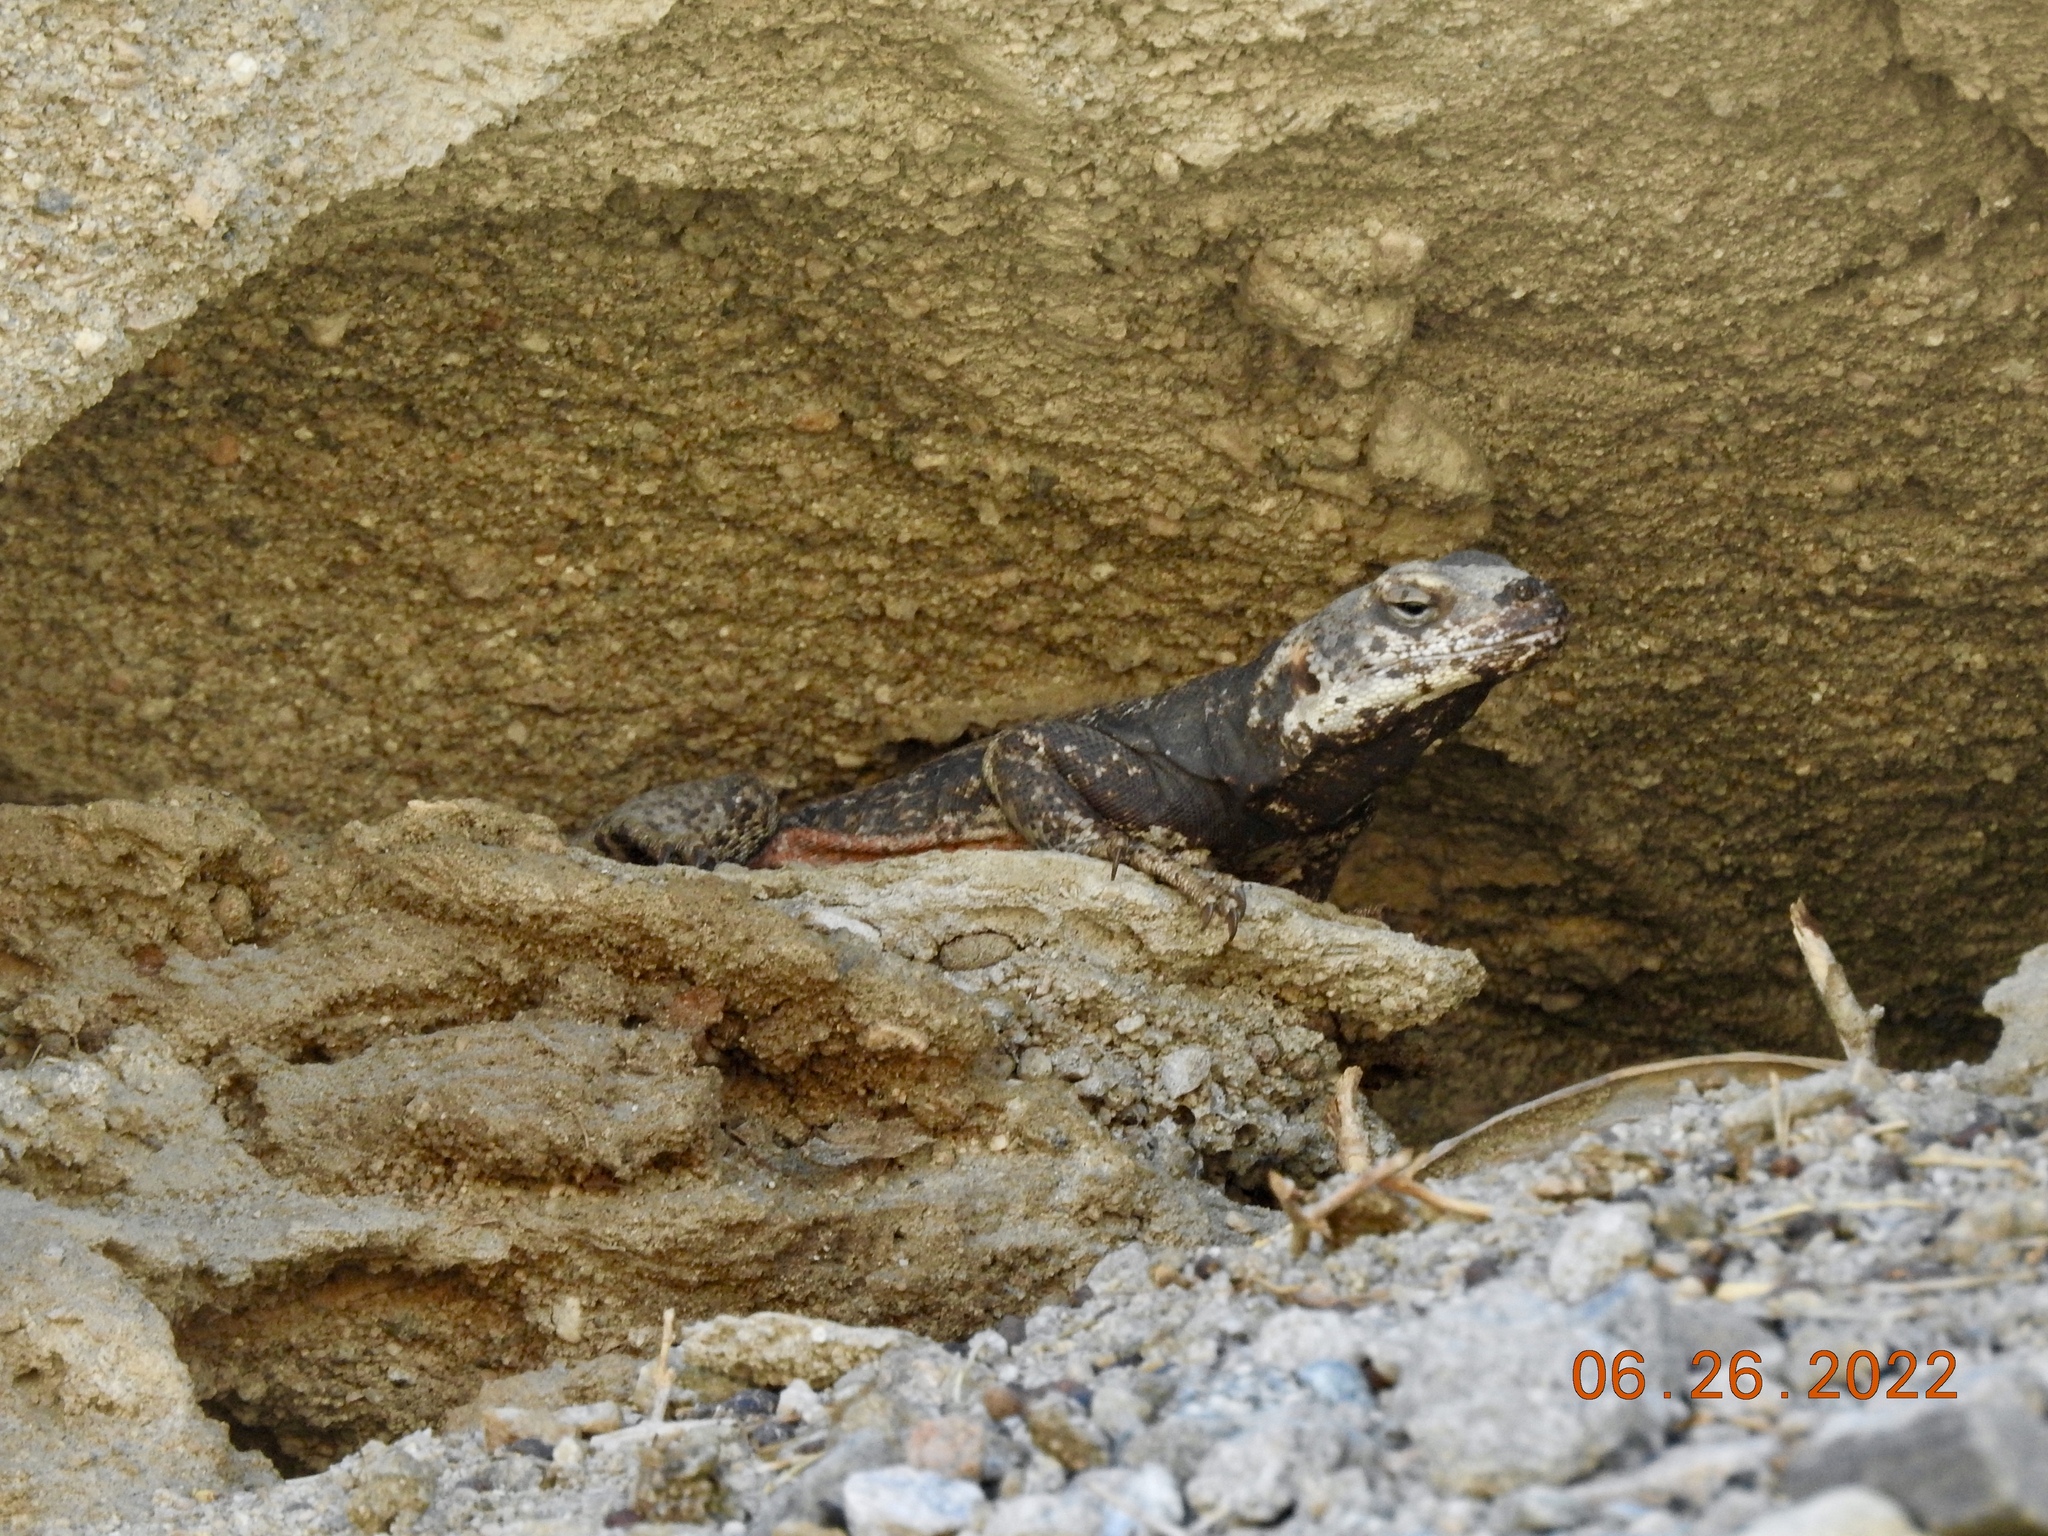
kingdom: Animalia
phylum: Chordata
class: Squamata
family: Iguanidae
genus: Sauromalus
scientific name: Sauromalus ater
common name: Northern chuckwalla
